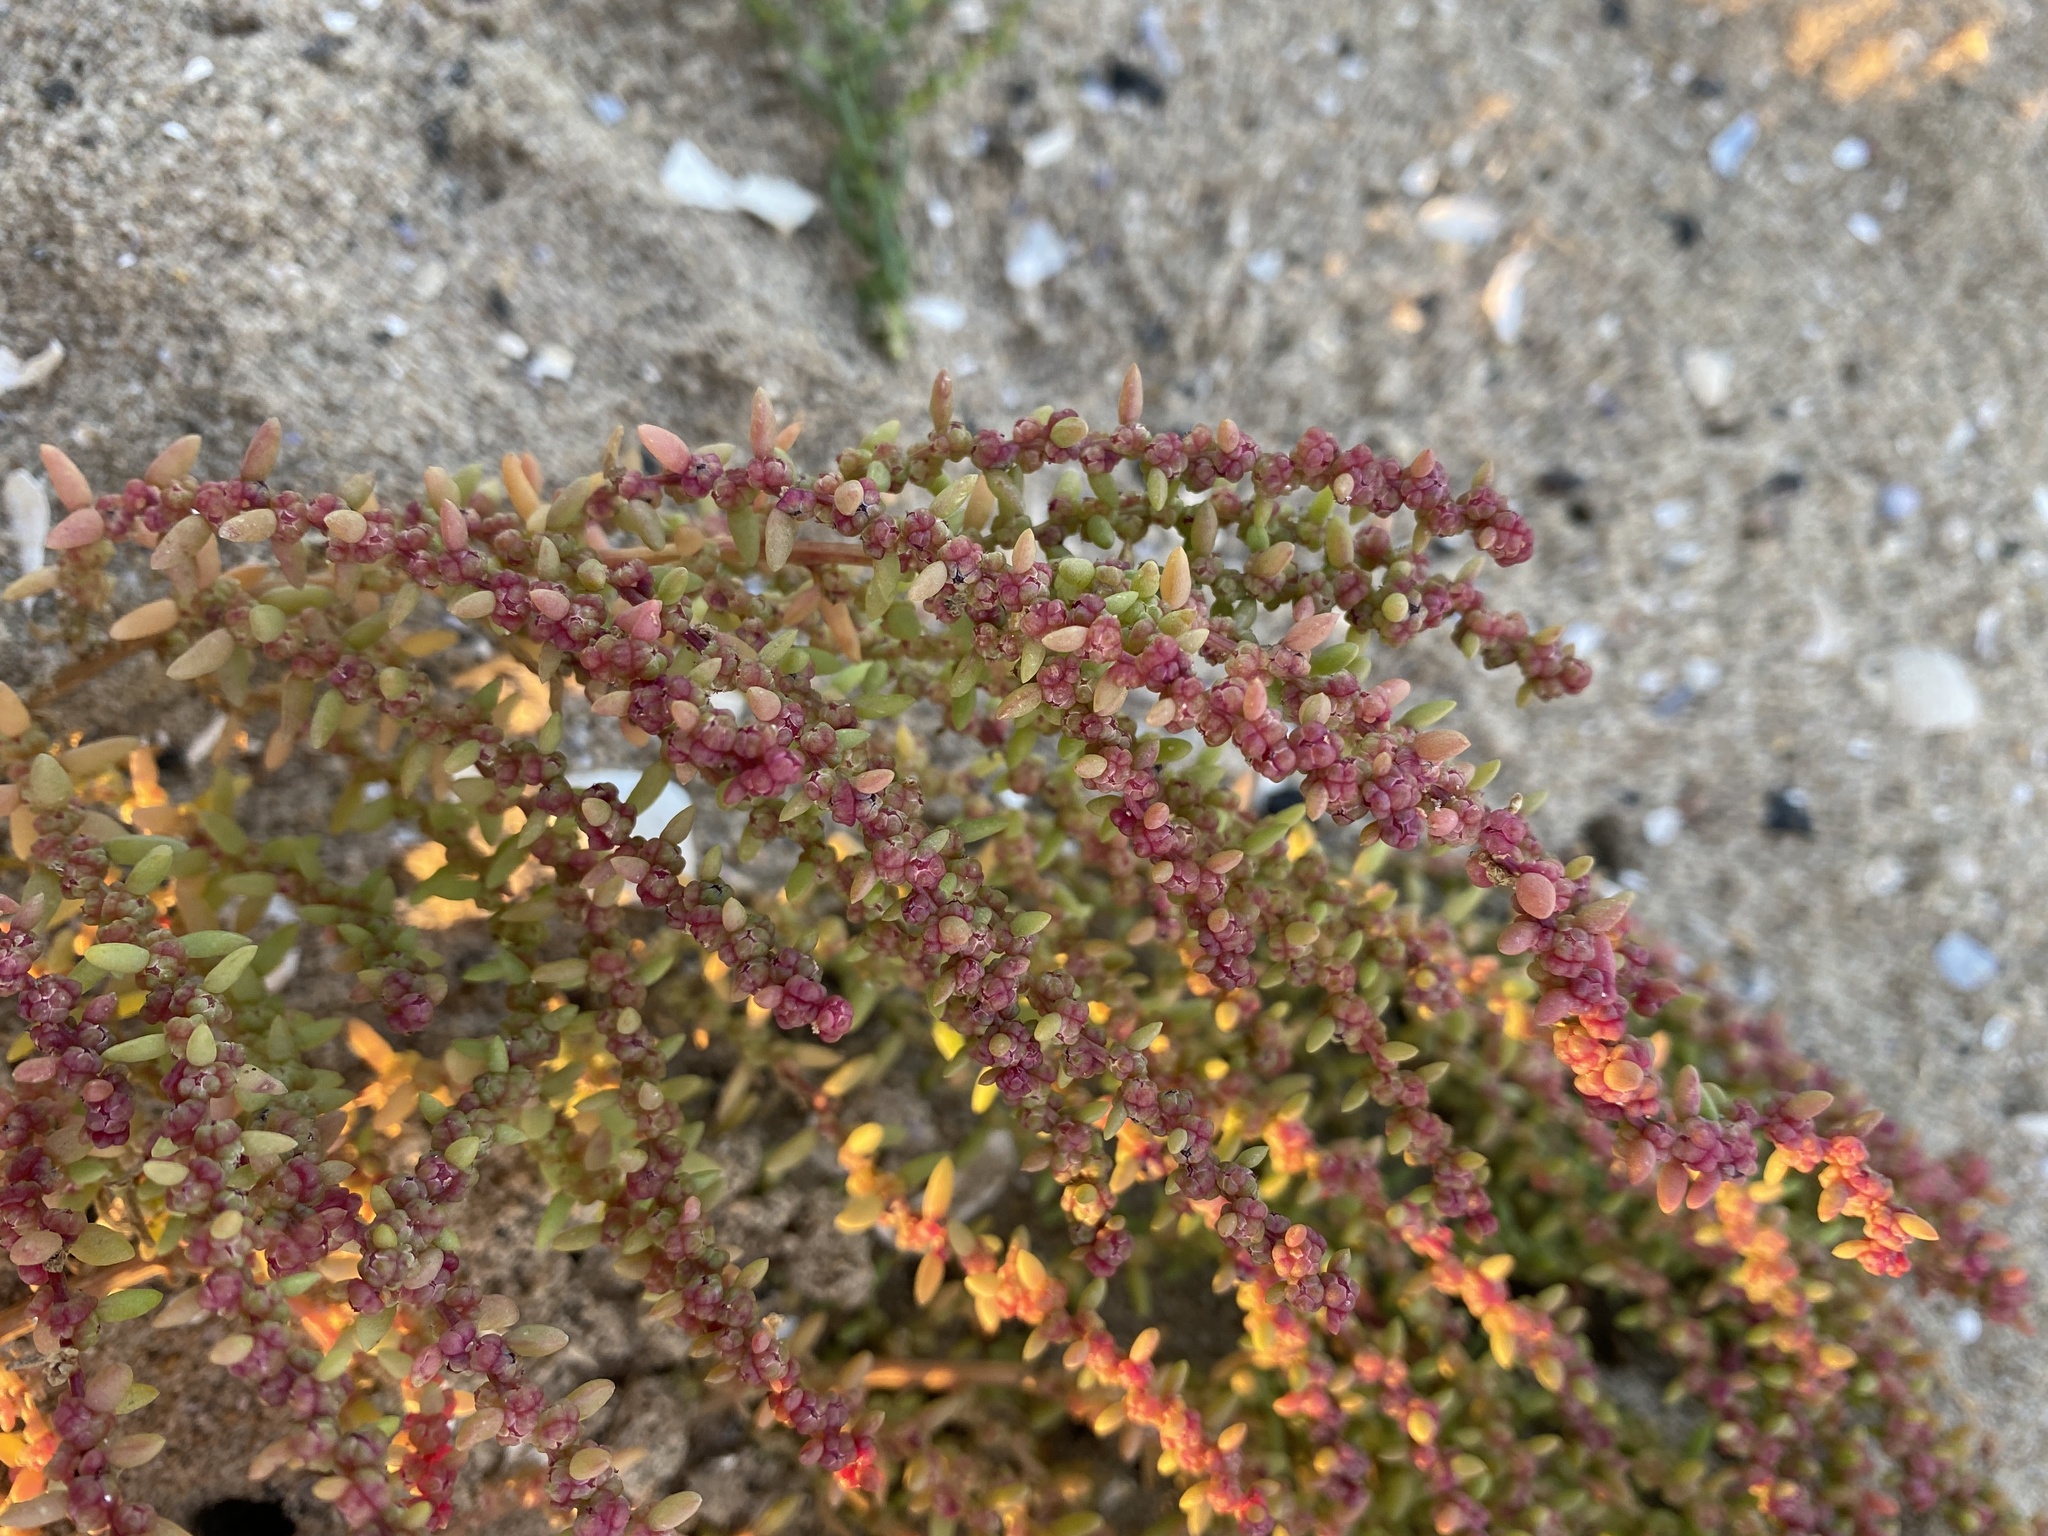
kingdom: Plantae
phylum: Tracheophyta
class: Magnoliopsida
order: Caryophyllales
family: Amaranthaceae
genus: Suaeda
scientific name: Suaeda maritima
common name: Annual sea-blite
